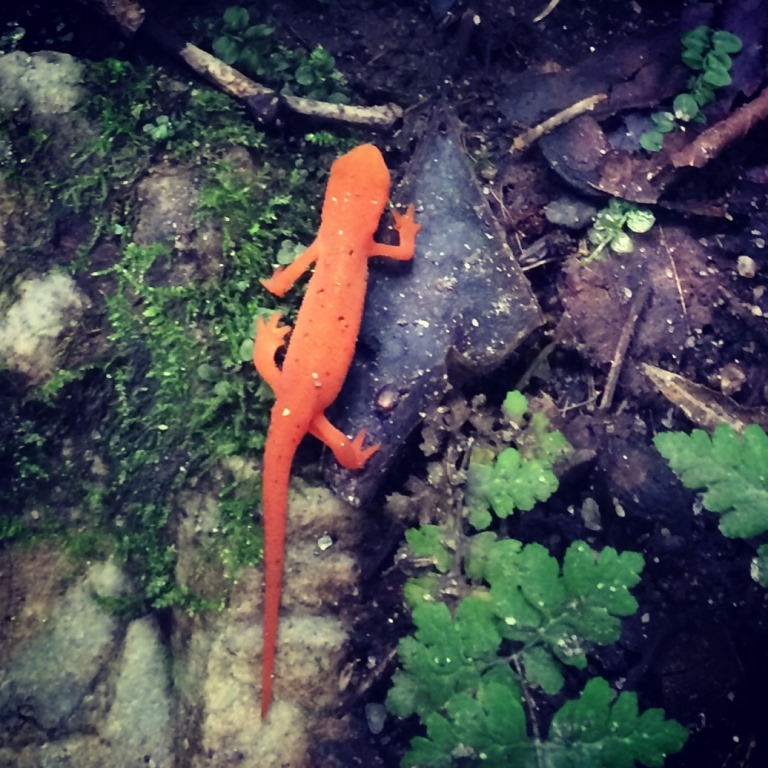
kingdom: Animalia
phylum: Chordata
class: Amphibia
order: Caudata
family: Salamandridae
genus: Notophthalmus
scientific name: Notophthalmus viridescens
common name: Eastern newt
